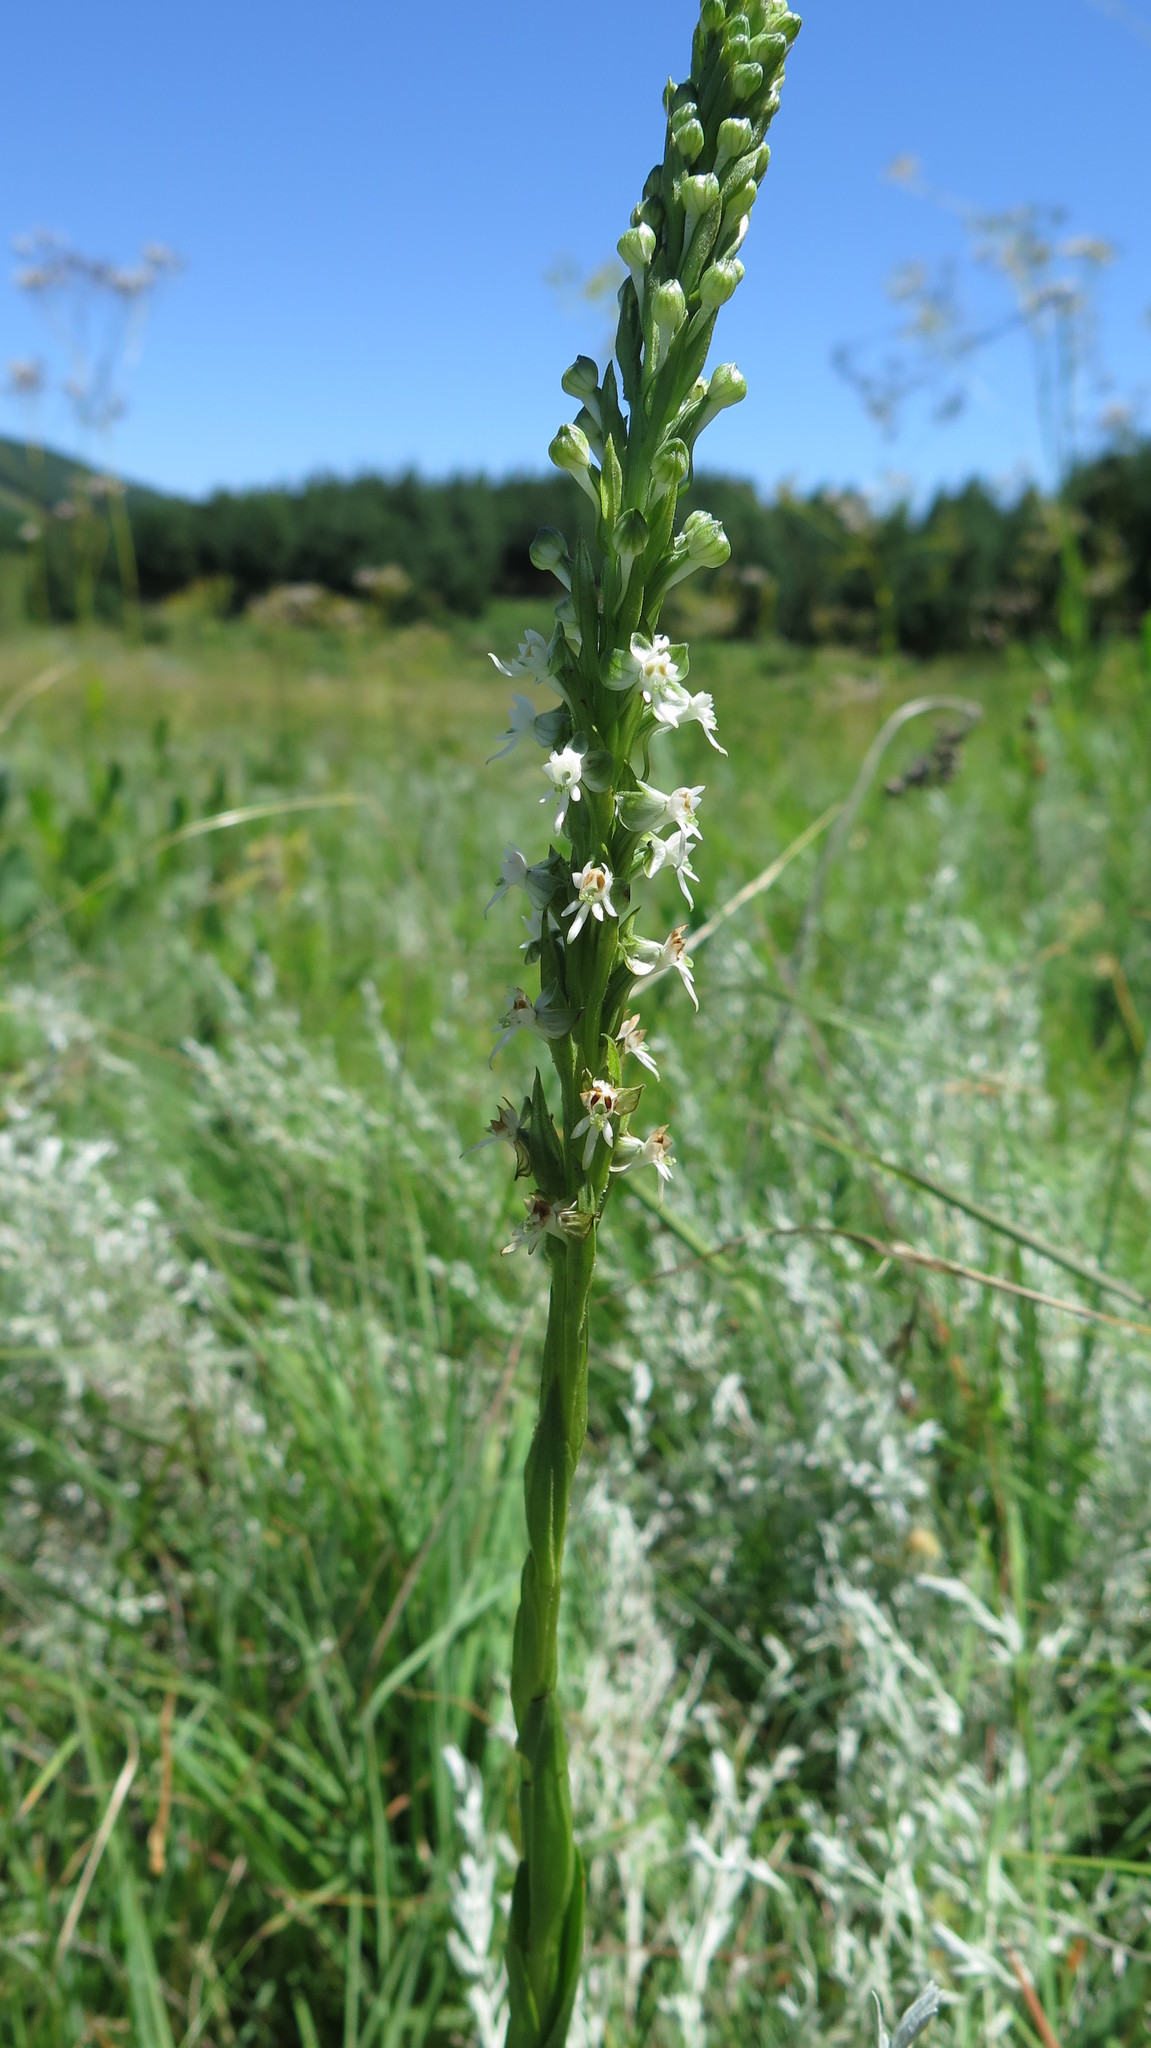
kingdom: Plantae
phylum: Tracheophyta
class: Liliopsida
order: Asparagales
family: Orchidaceae
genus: Habenaria
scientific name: Habenaria dives
